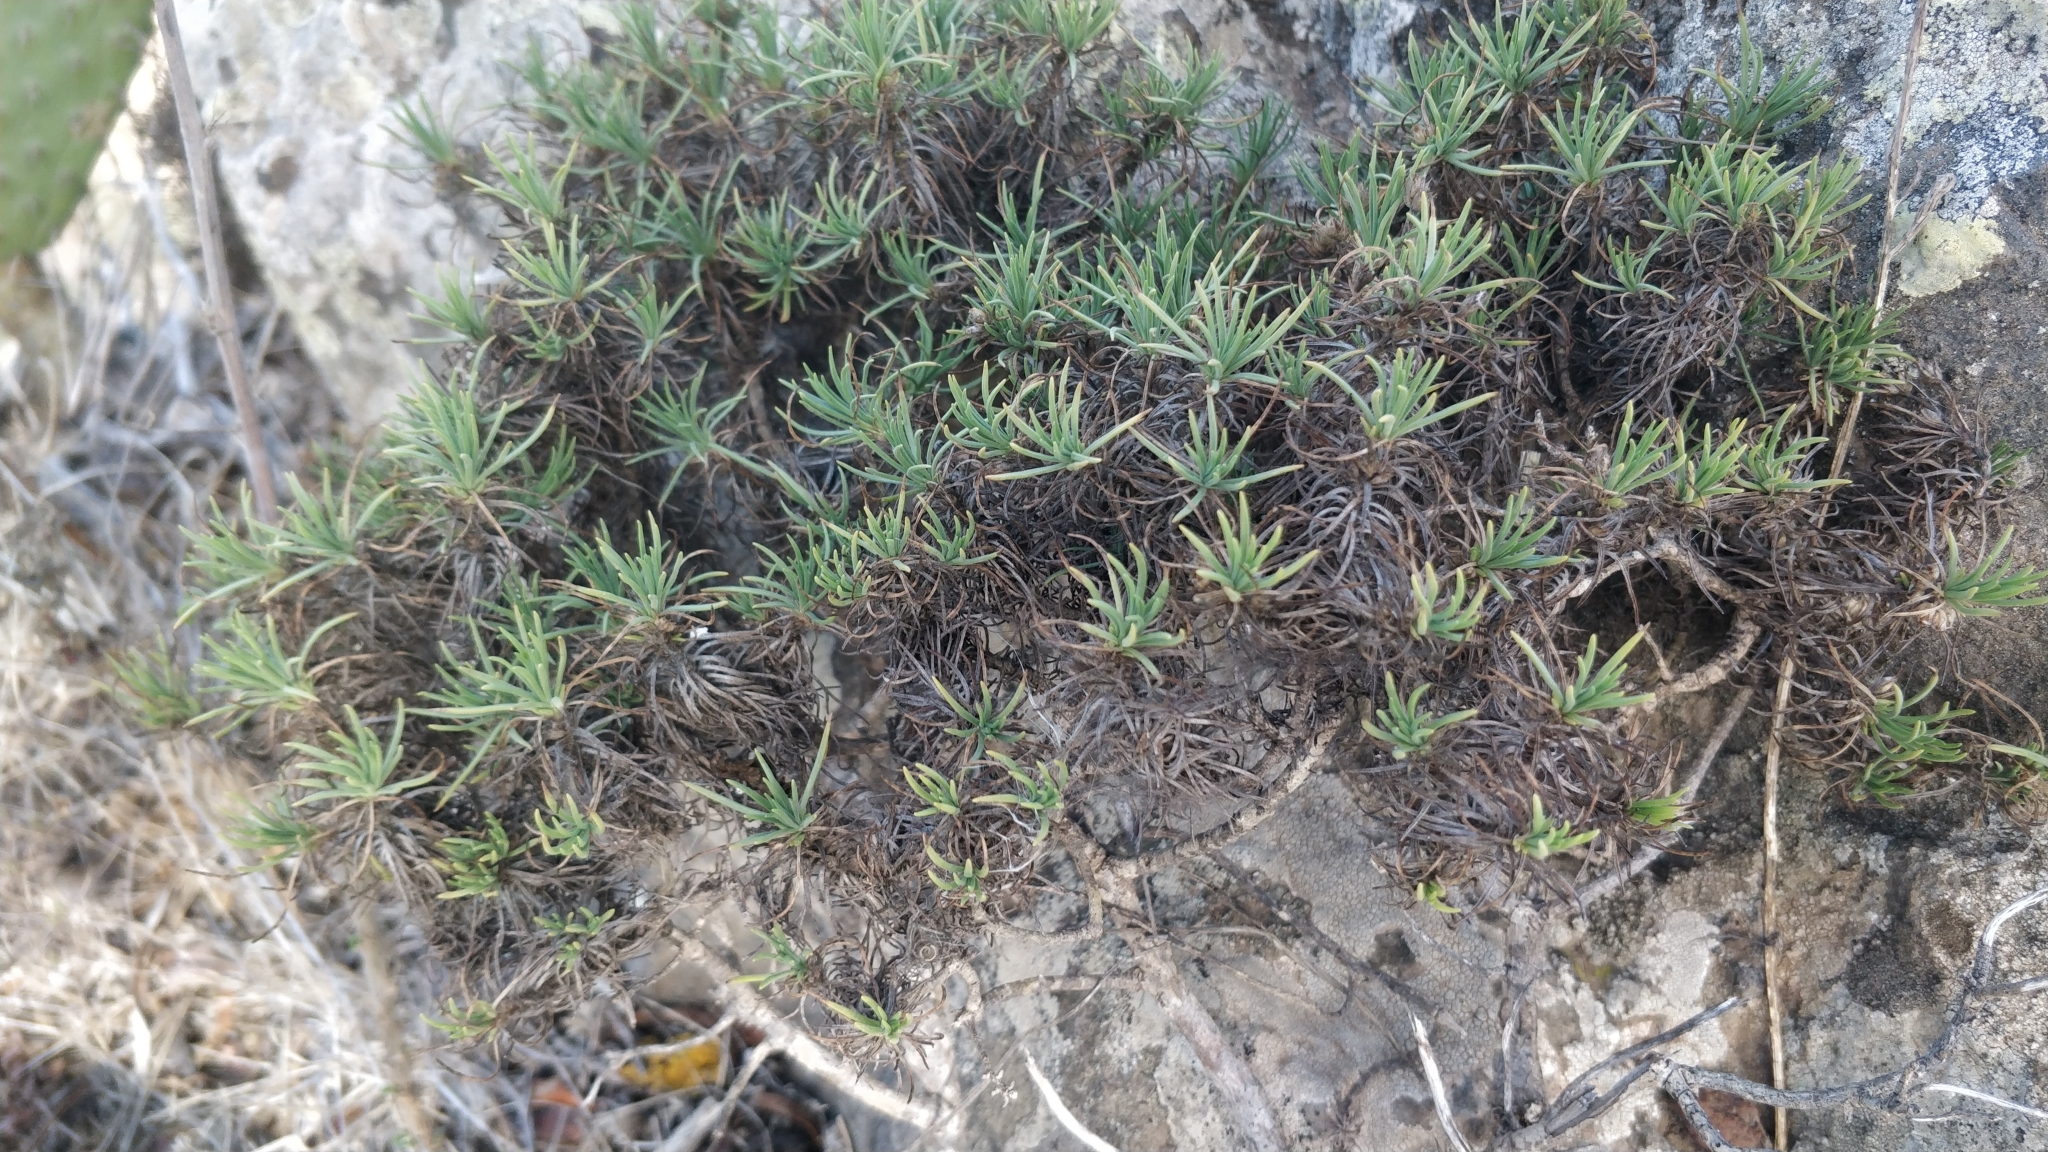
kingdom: Plantae
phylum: Tracheophyta
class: Magnoliopsida
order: Lamiales
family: Plantaginaceae
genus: Plantago
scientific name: Plantago arborescens
